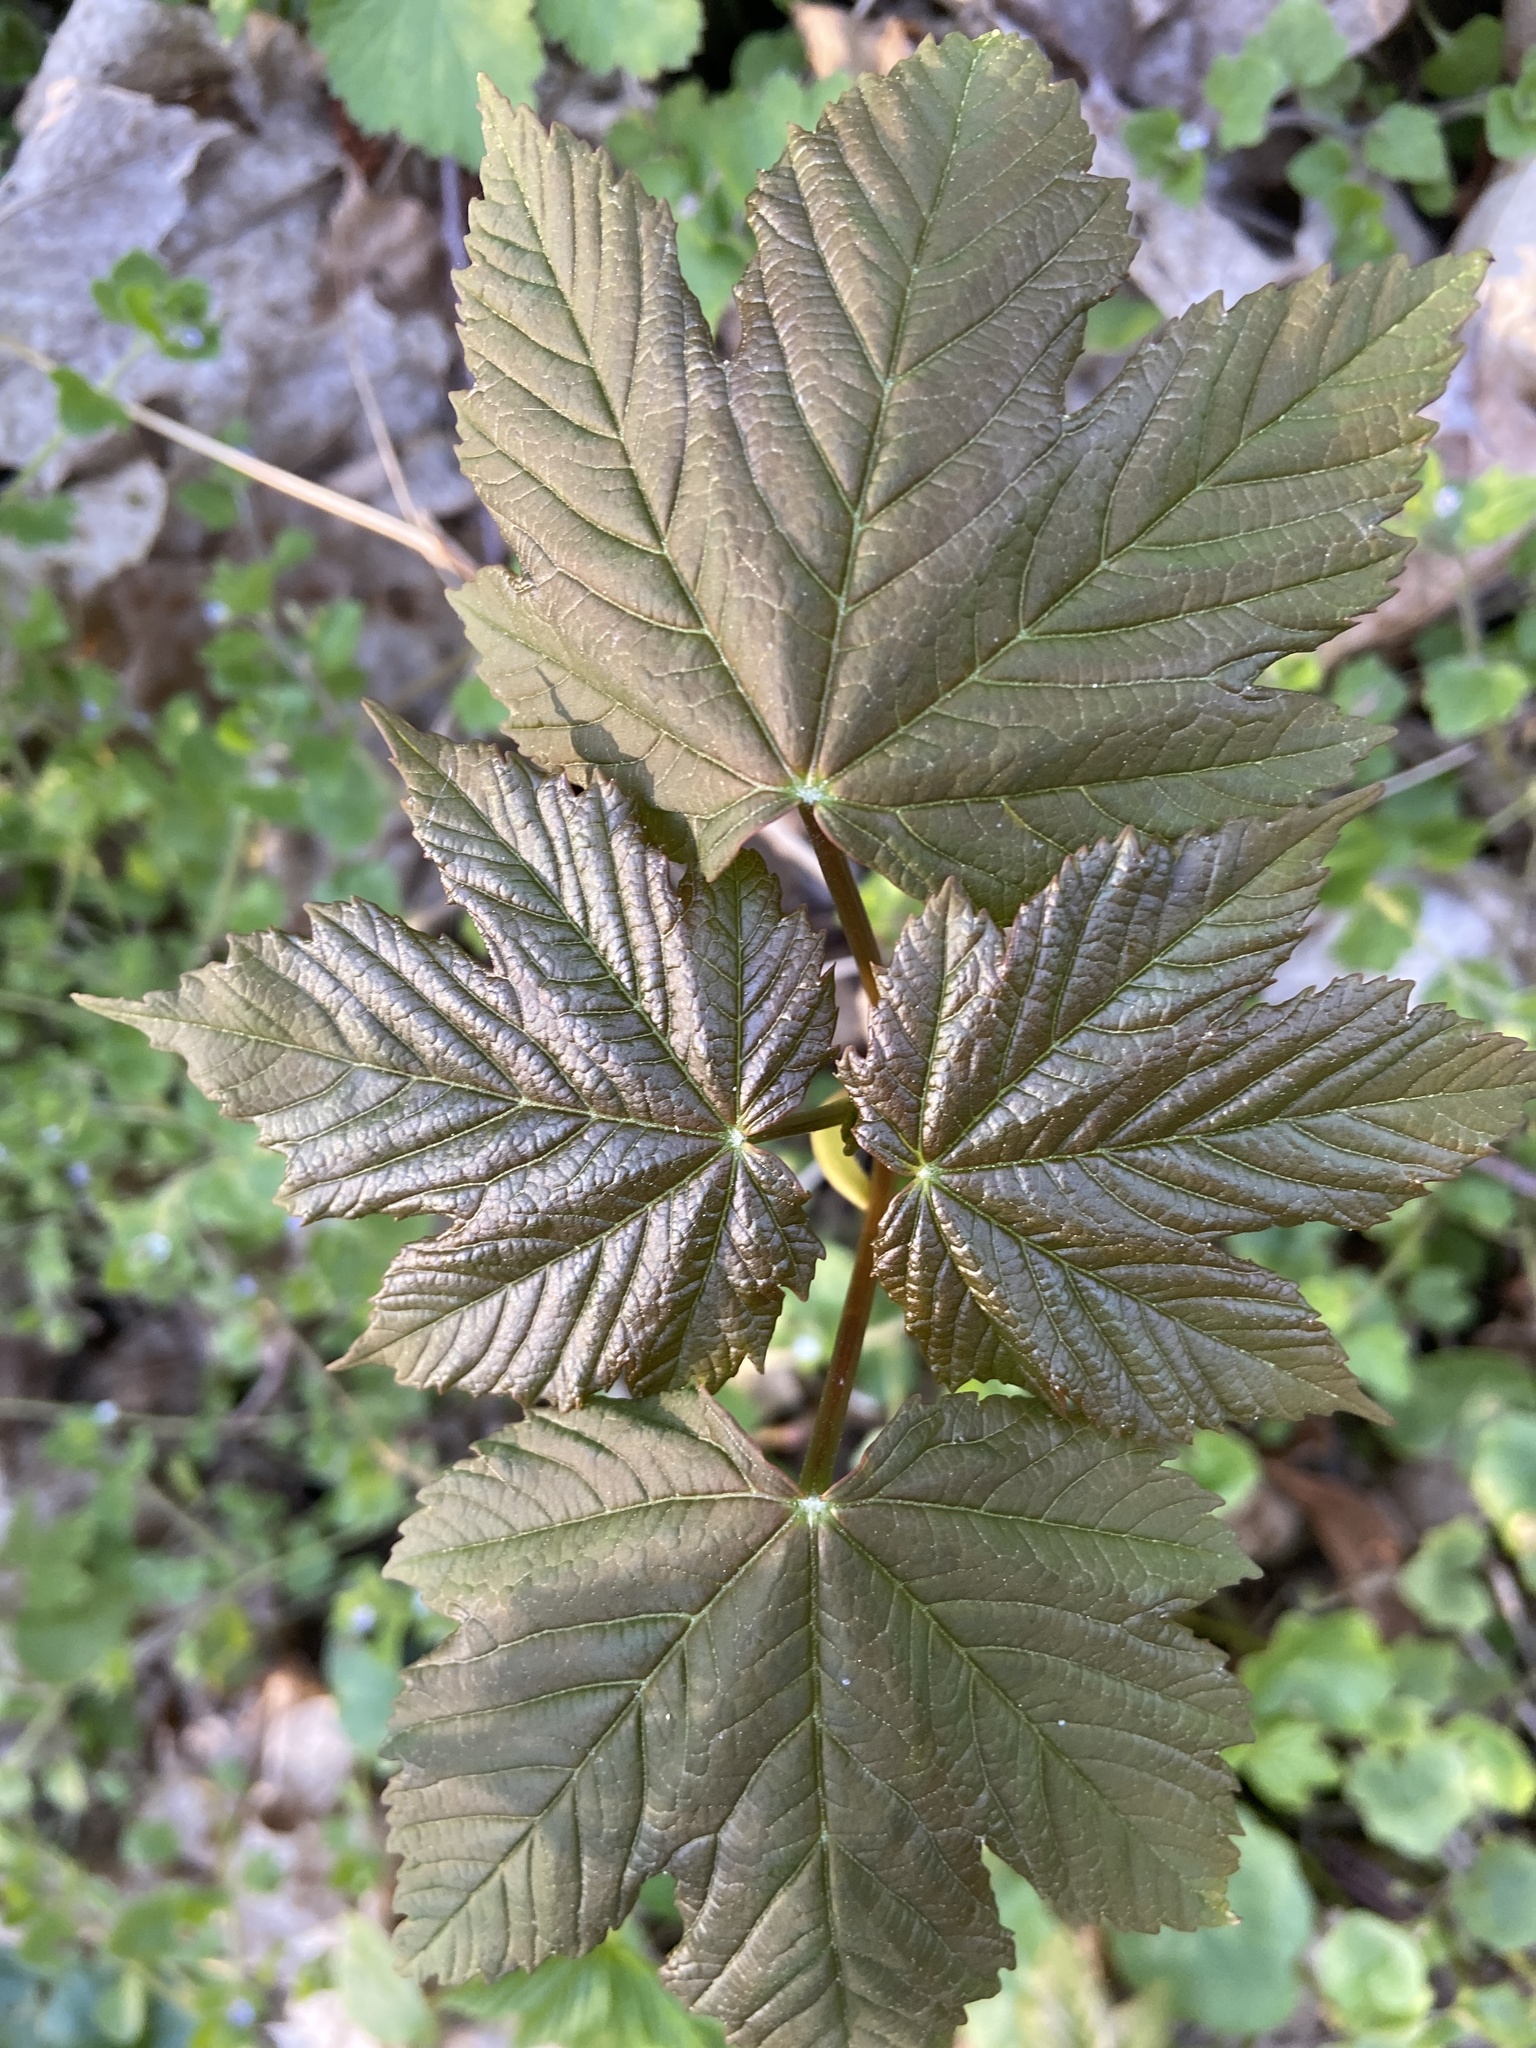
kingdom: Plantae
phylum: Tracheophyta
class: Magnoliopsida
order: Sapindales
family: Sapindaceae
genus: Acer
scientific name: Acer pseudoplatanus
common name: Sycamore
